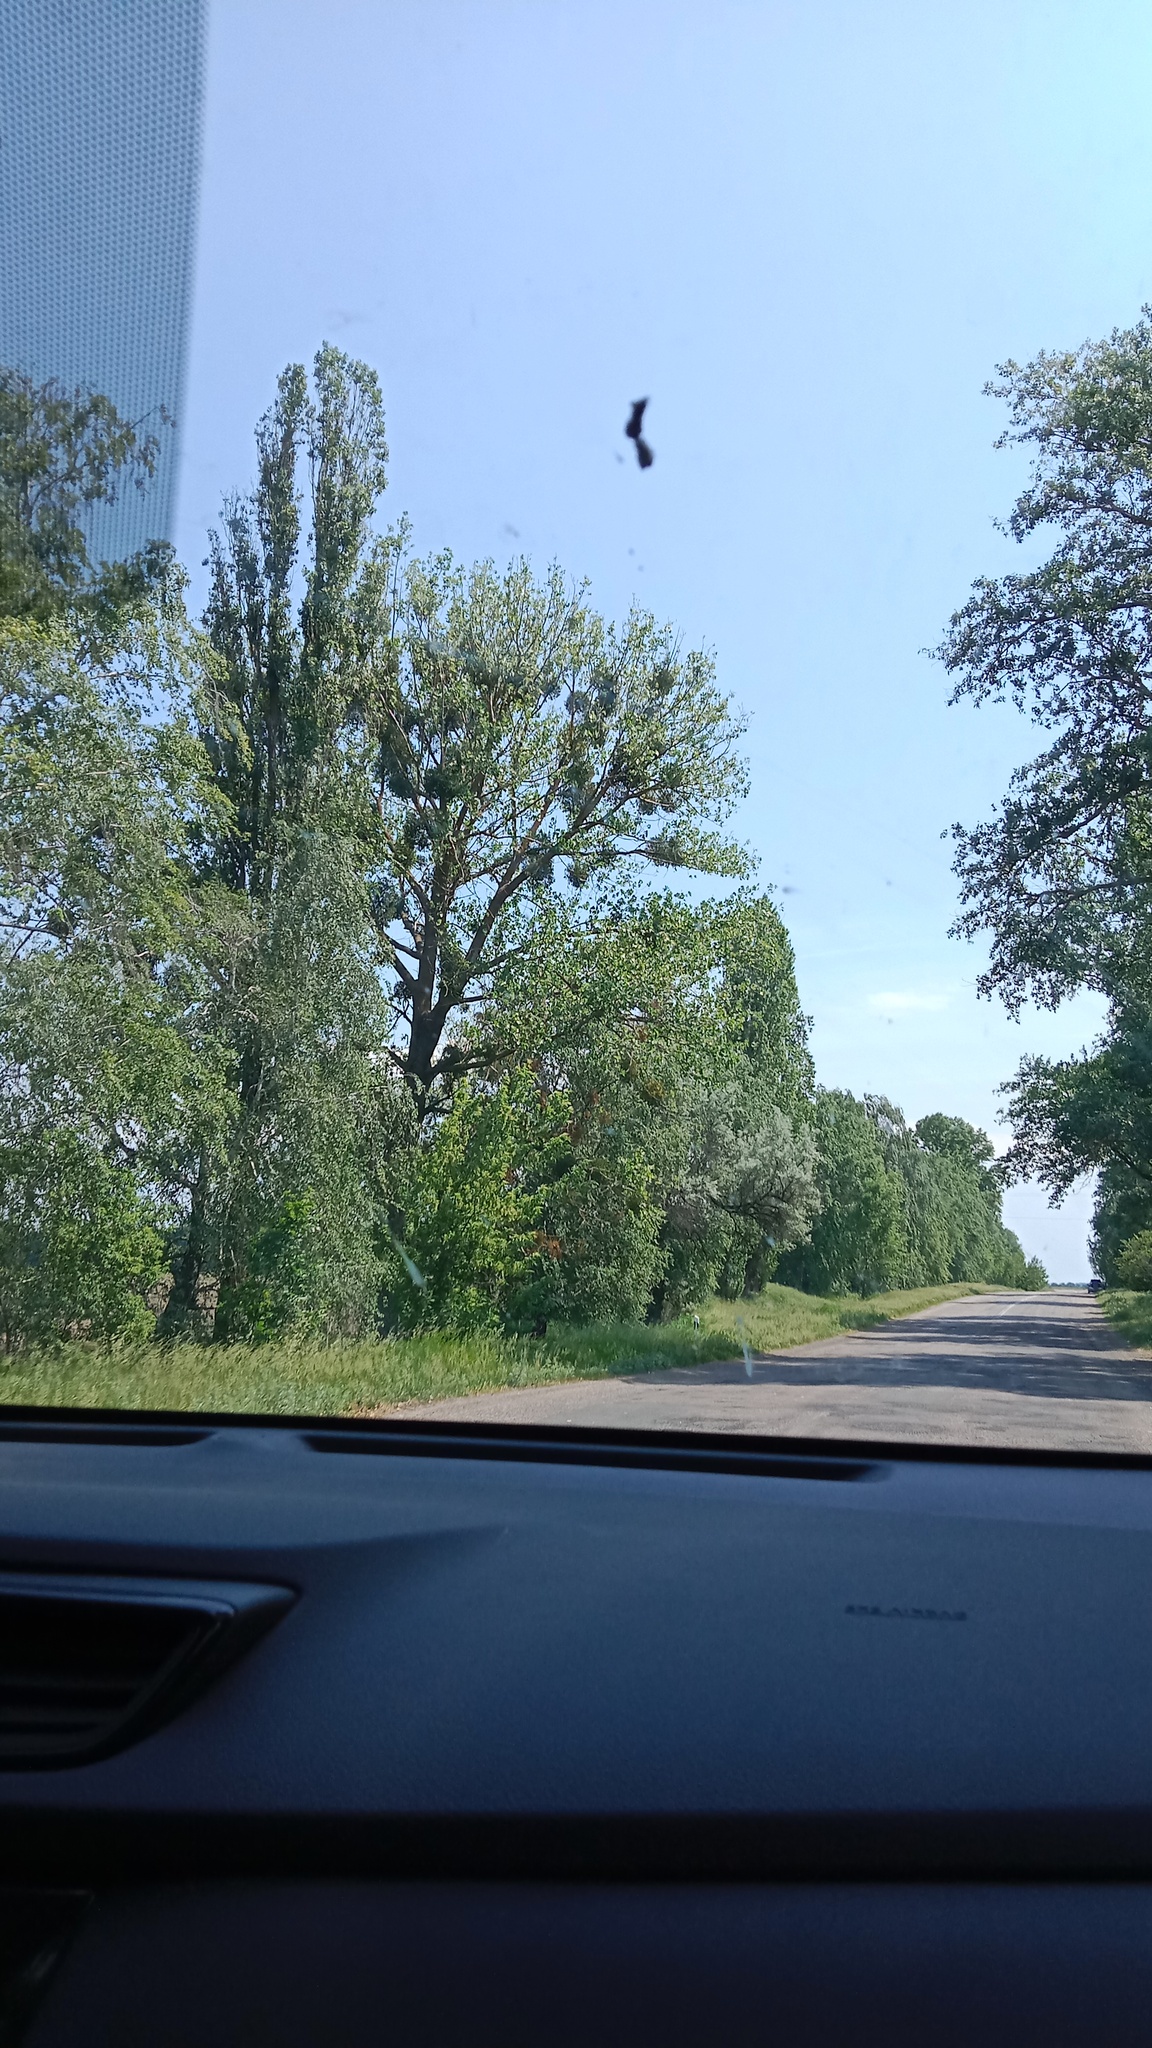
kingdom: Plantae
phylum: Tracheophyta
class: Magnoliopsida
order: Santalales
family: Viscaceae
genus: Viscum
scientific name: Viscum album
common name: Mistletoe
